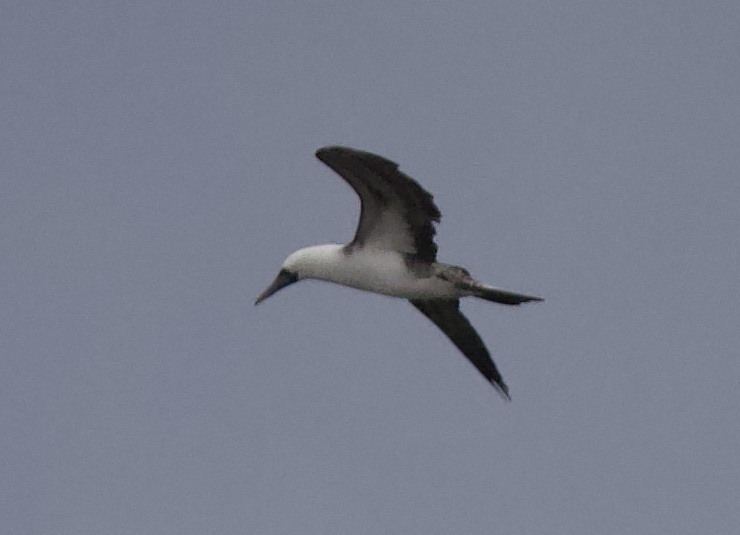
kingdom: Animalia
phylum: Chordata
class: Aves
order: Suliformes
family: Sulidae
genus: Sula
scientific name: Sula variegata
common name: Peruvian booby
